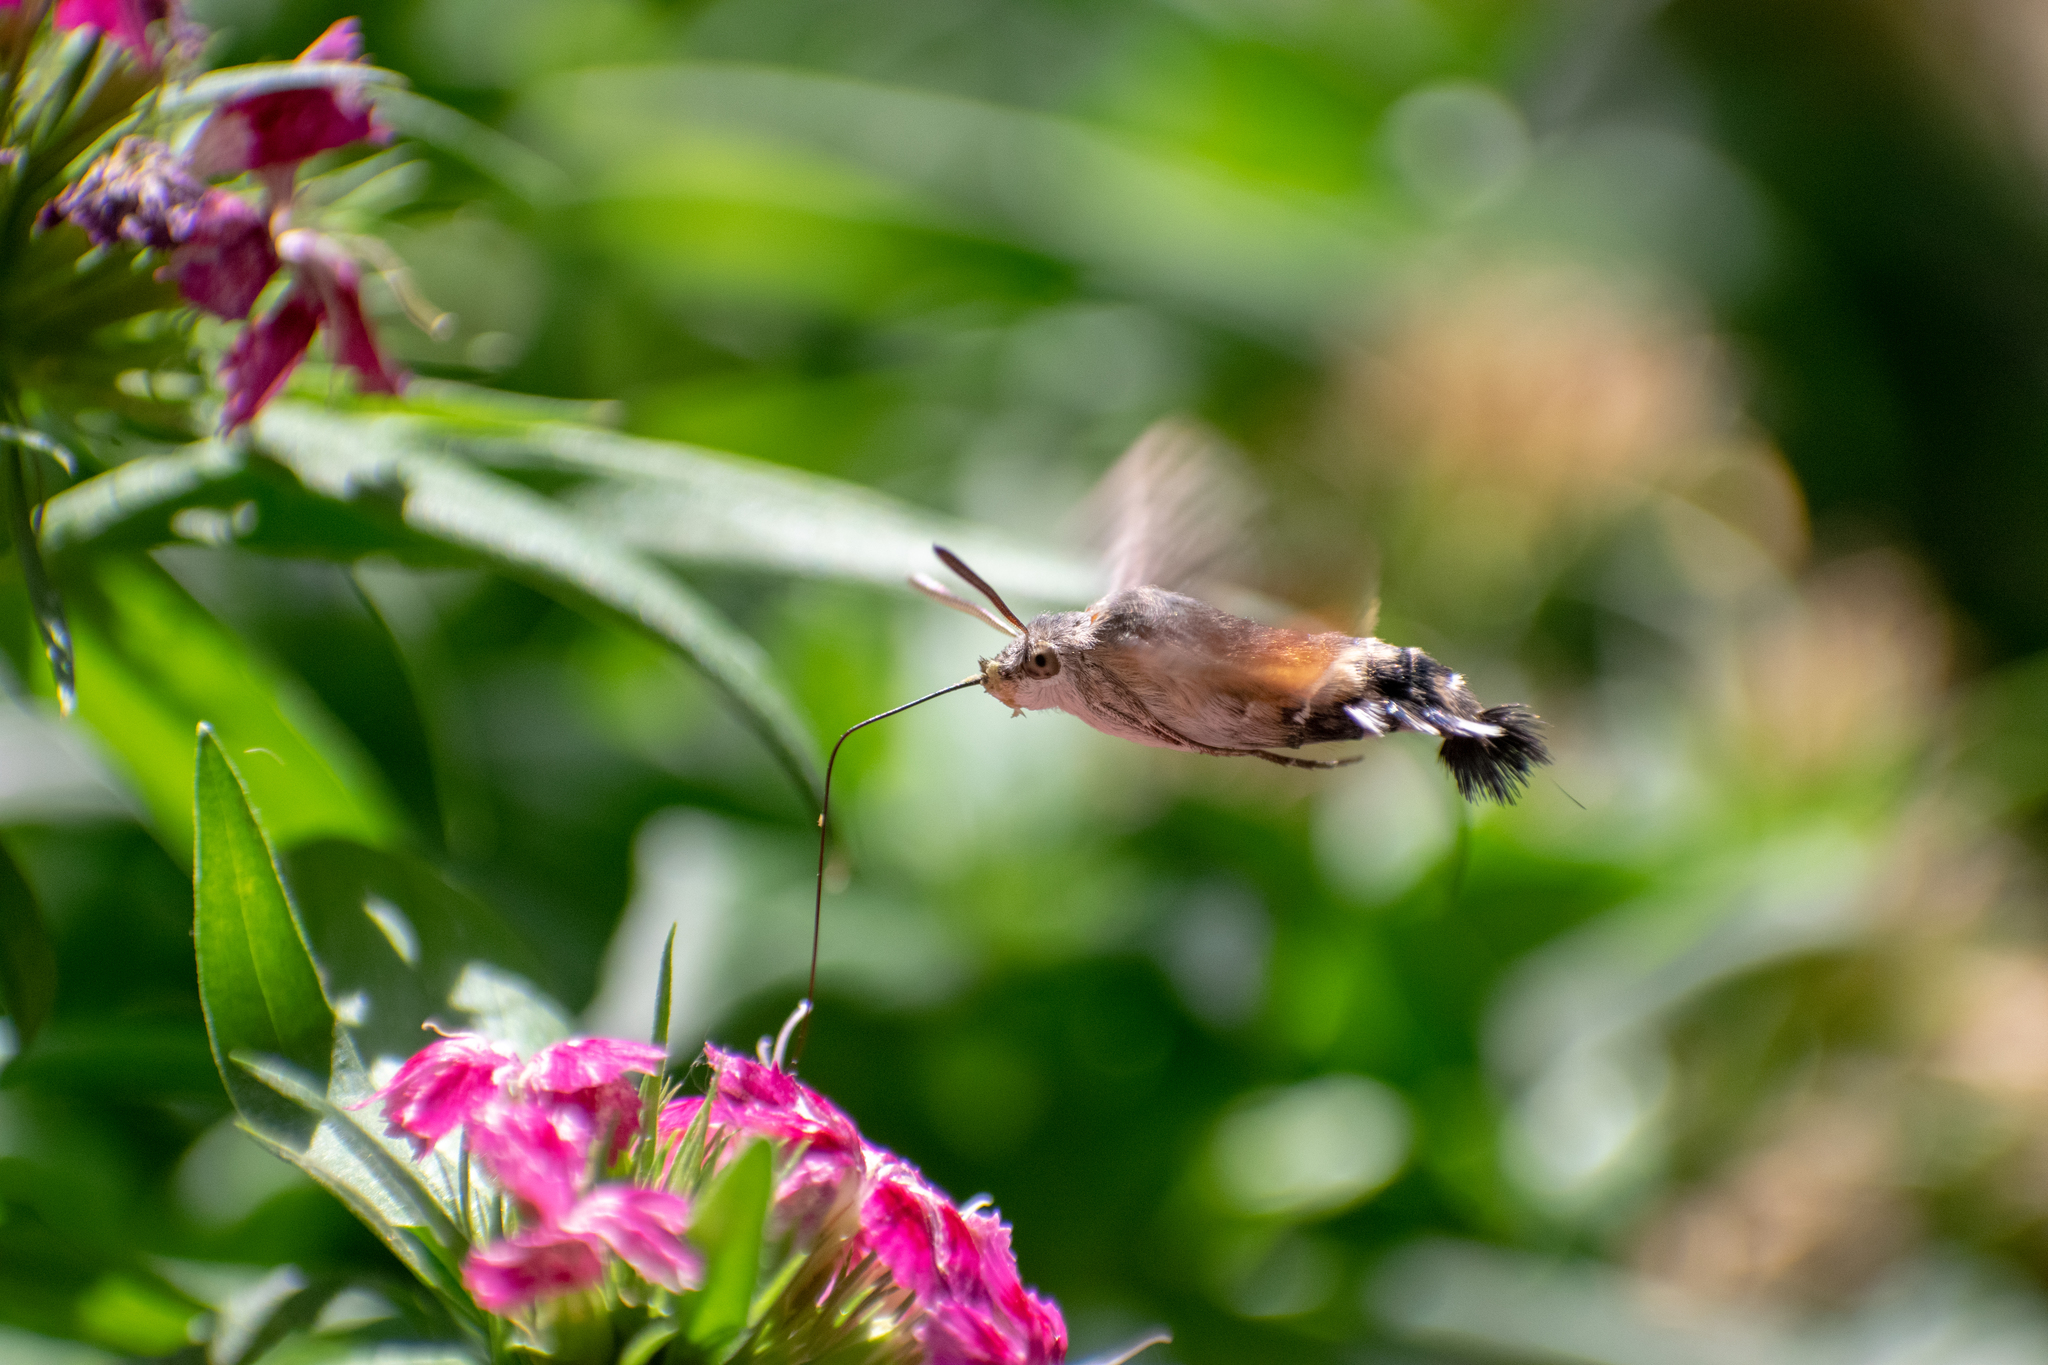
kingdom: Animalia
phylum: Arthropoda
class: Insecta
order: Lepidoptera
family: Sphingidae
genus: Macroglossum
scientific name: Macroglossum stellatarum
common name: Humming-bird hawk-moth
